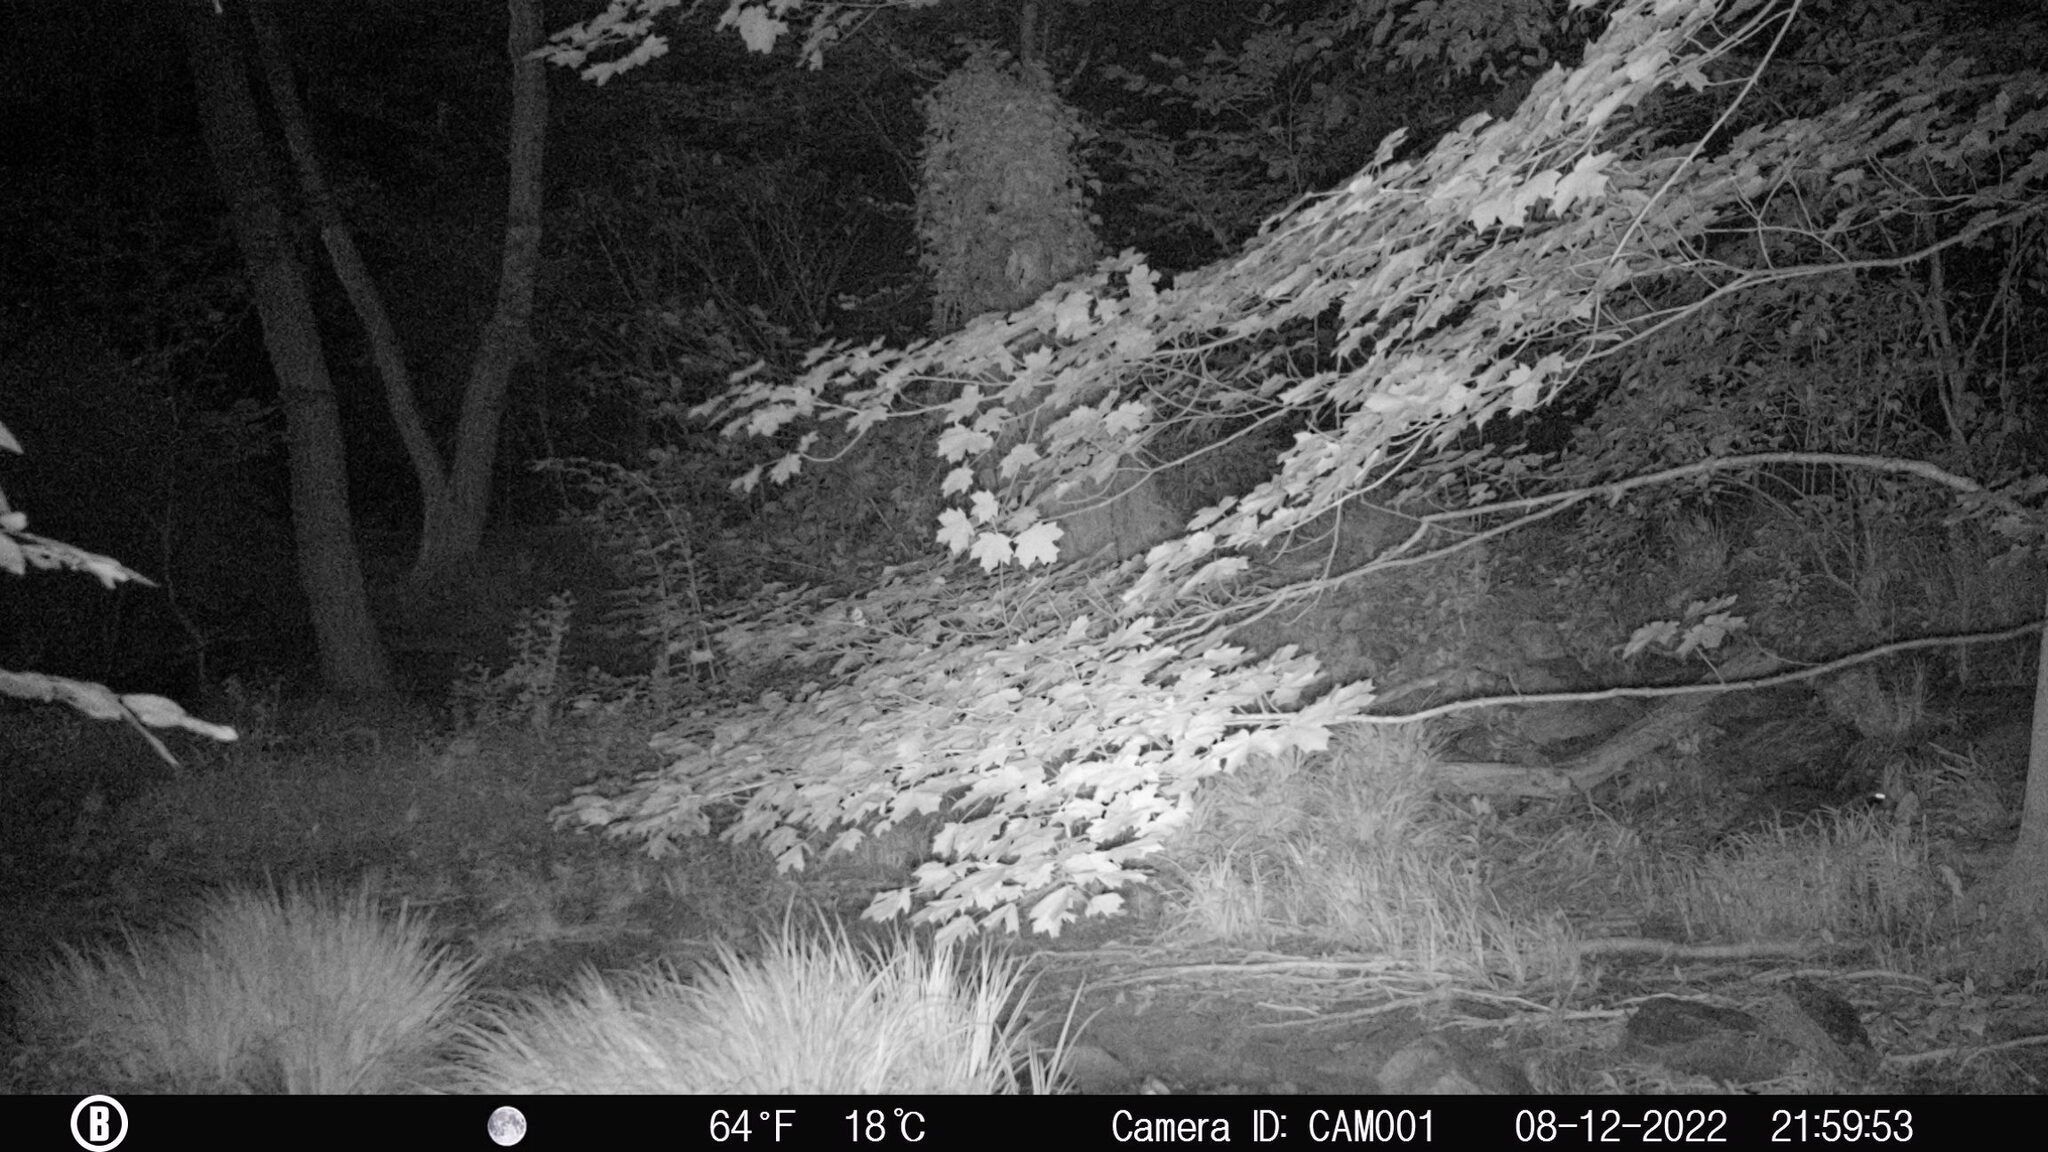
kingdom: Animalia
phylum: Chordata
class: Mammalia
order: Carnivora
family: Procyonidae
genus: Procyon
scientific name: Procyon lotor
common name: Raccoon
